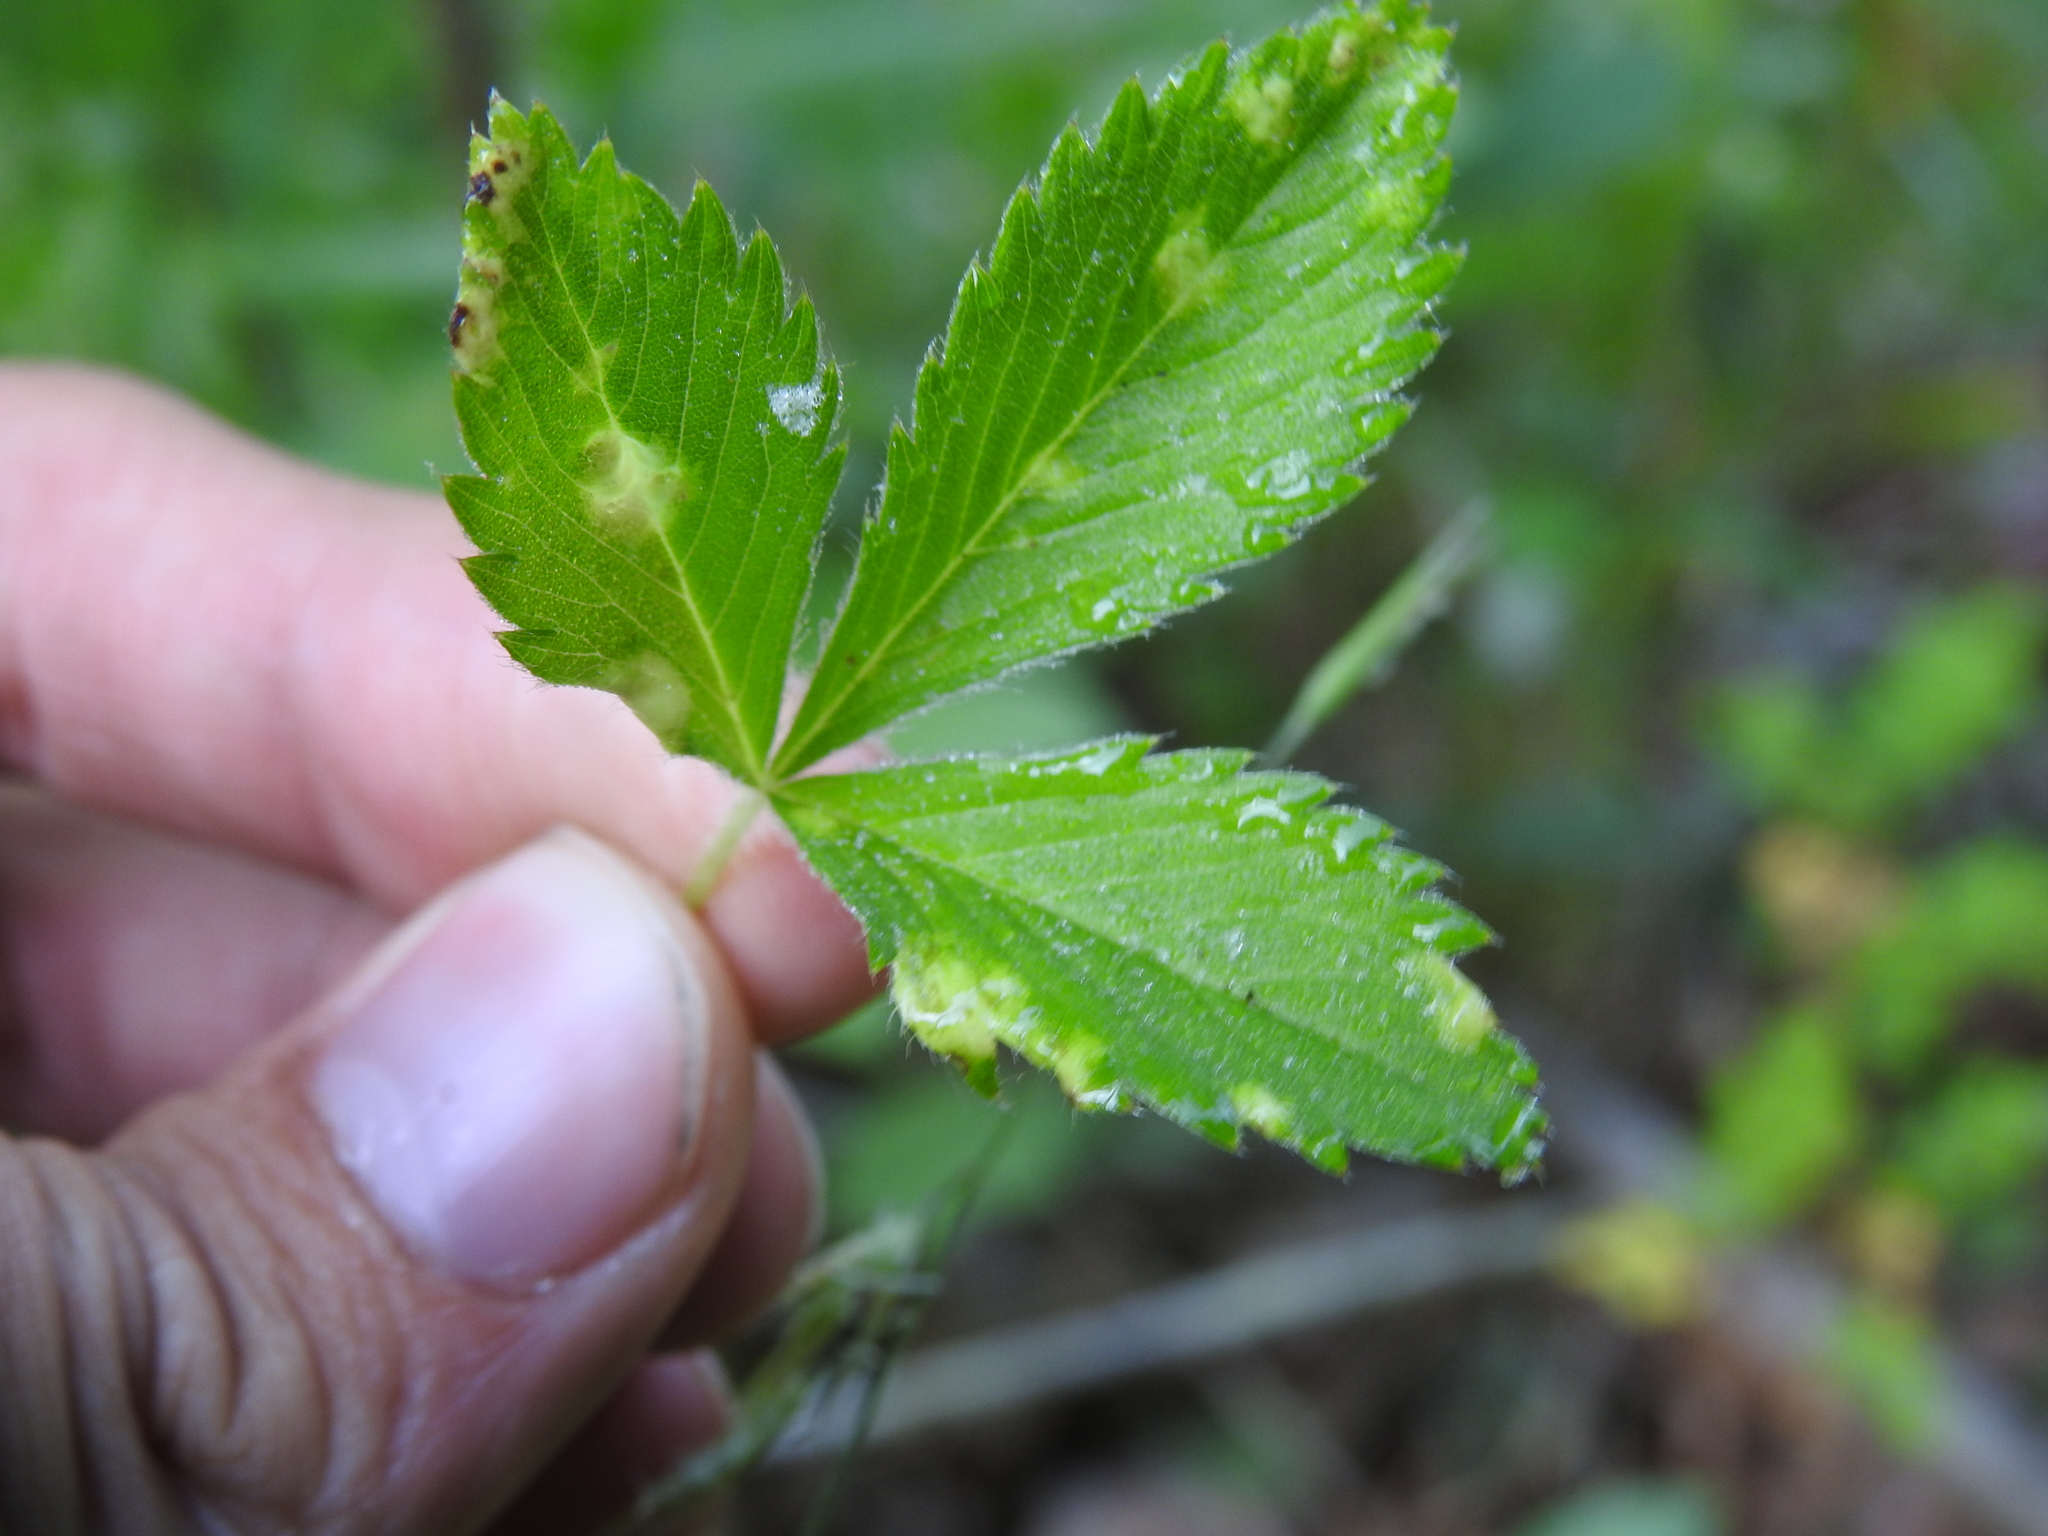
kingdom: Fungi
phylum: Ascomycota
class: Taphrinomycetes
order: Taphrinales
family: Taphrinaceae
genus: Taphrina
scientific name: Taphrina
